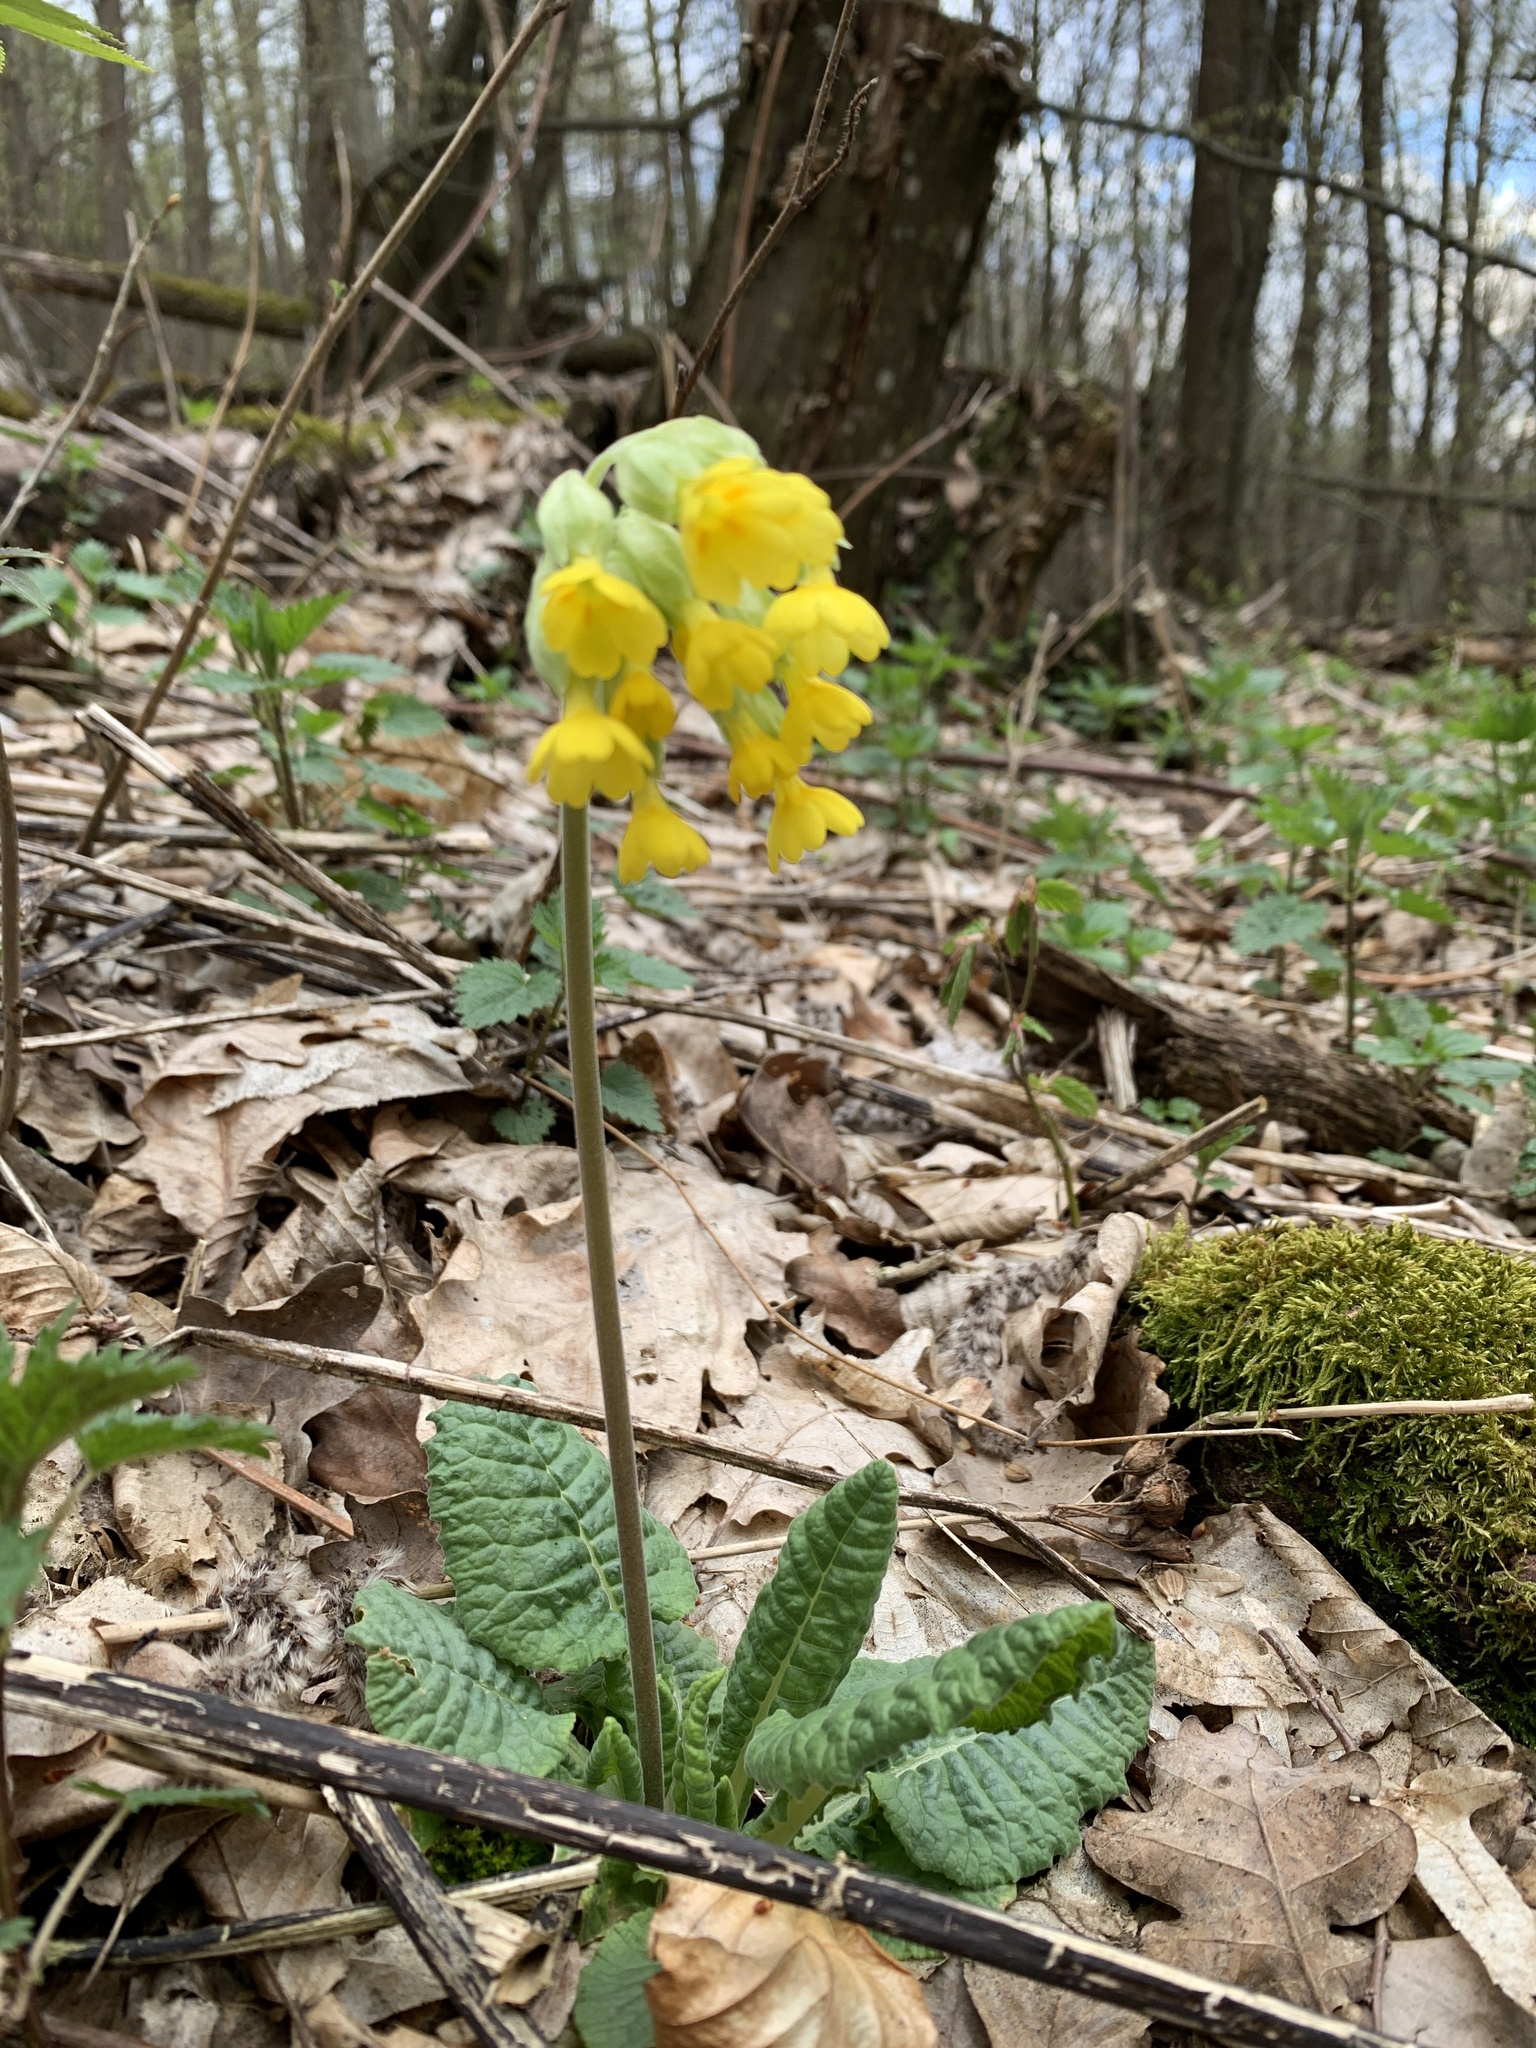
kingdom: Plantae
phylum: Tracheophyta
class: Magnoliopsida
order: Ericales
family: Primulaceae
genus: Primula
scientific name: Primula veris
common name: Cowslip
